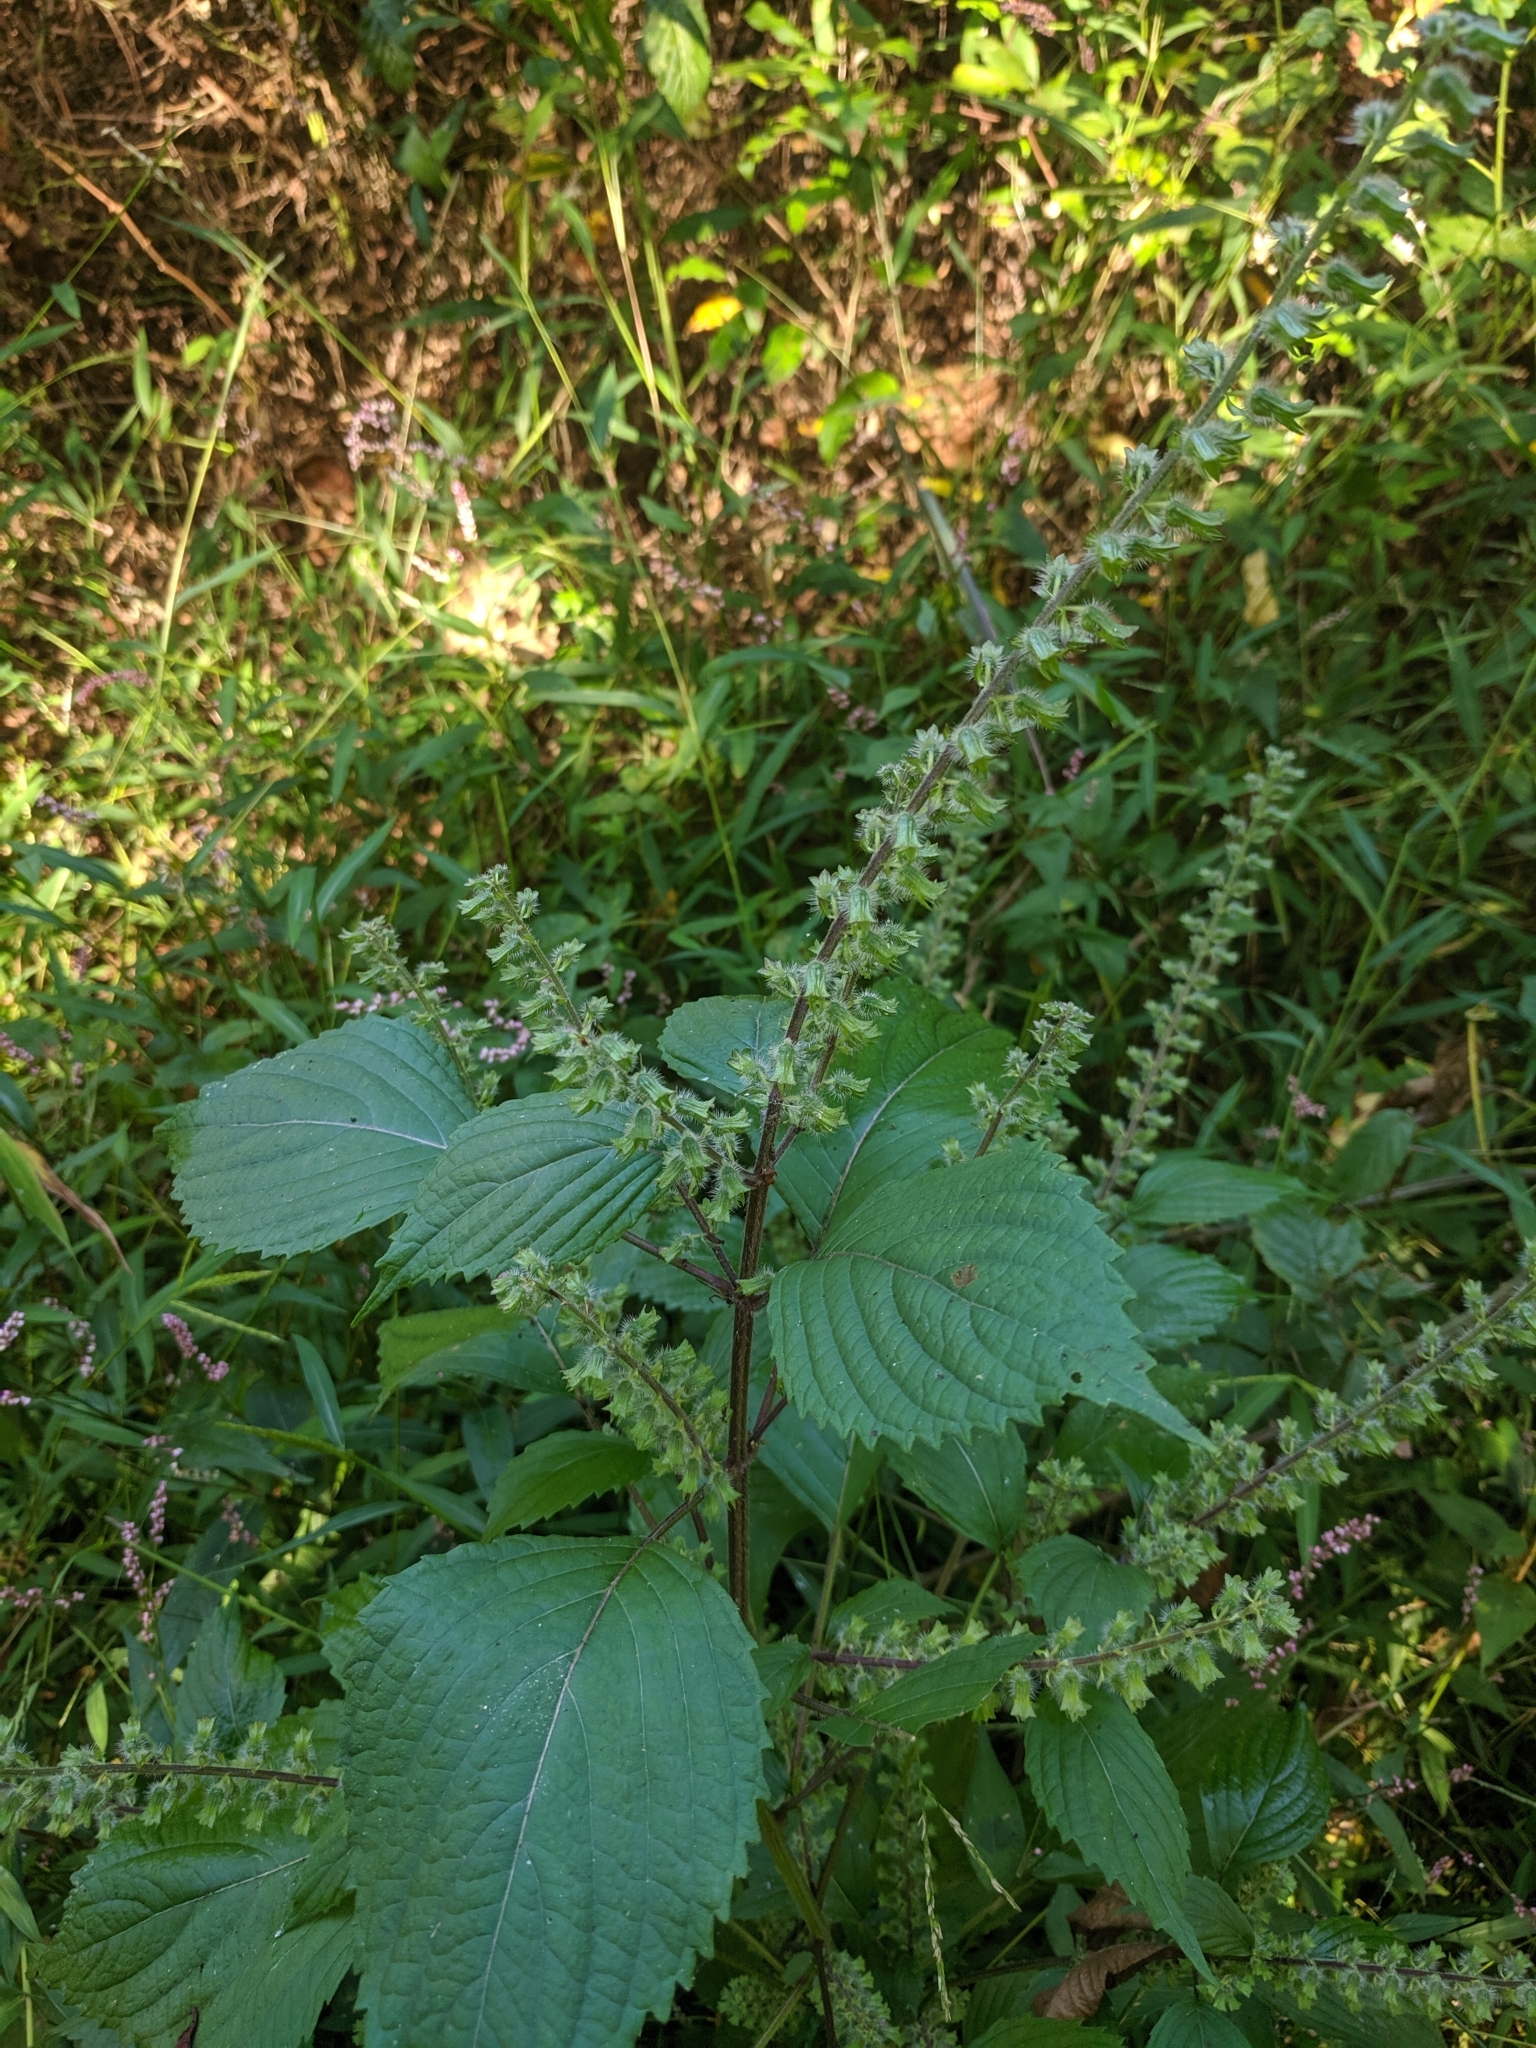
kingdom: Plantae
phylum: Tracheophyta
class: Magnoliopsida
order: Lamiales
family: Lamiaceae
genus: Perilla
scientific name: Perilla frutescens
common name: Perilla
